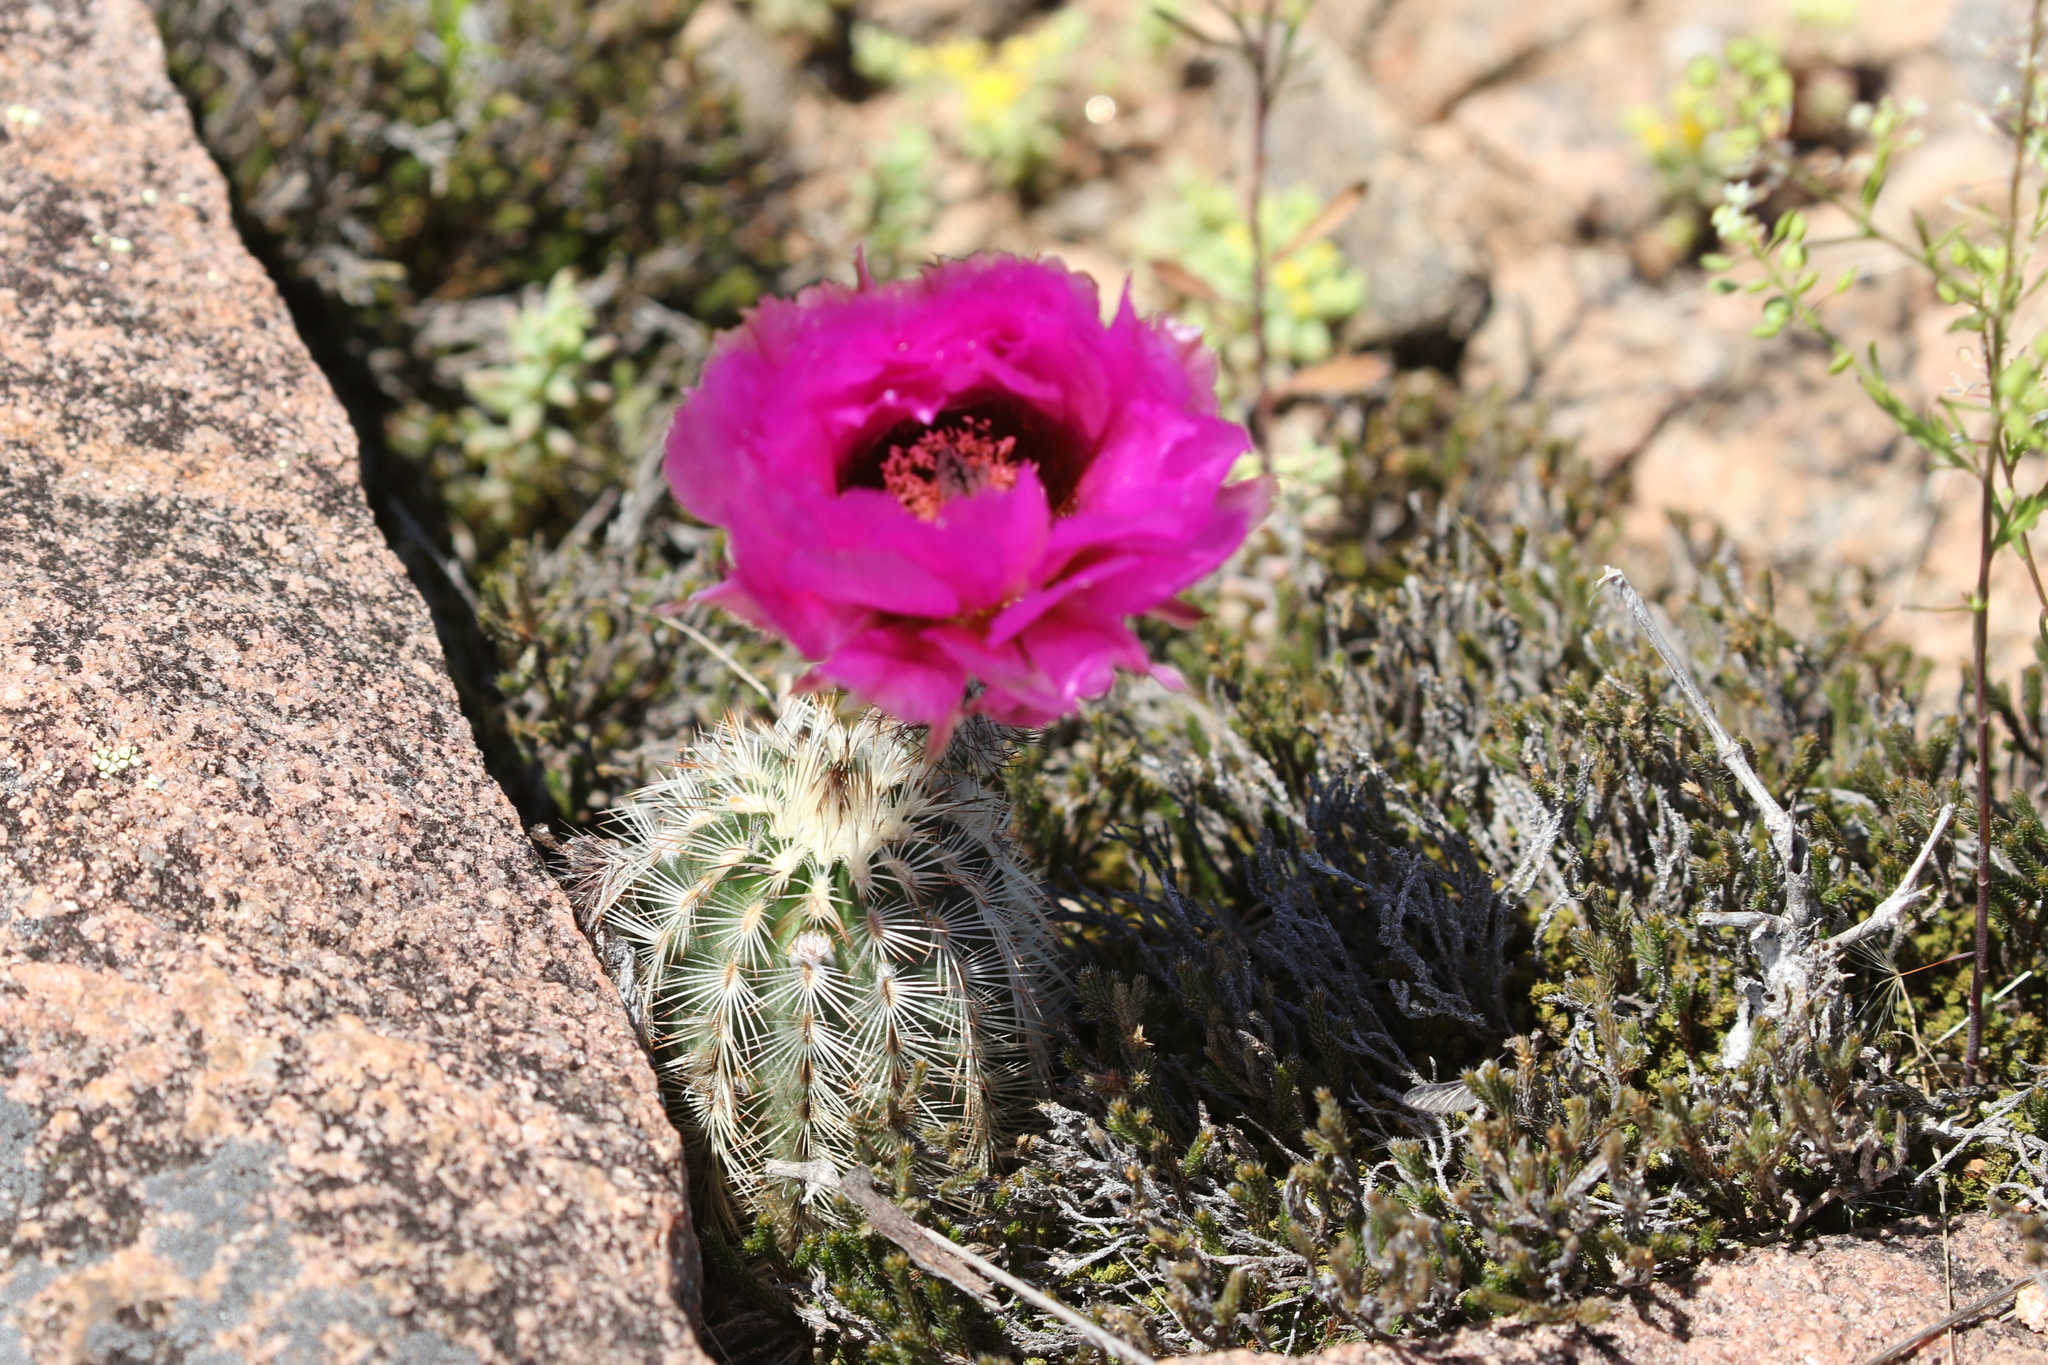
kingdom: Plantae
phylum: Tracheophyta
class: Magnoliopsida
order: Caryophyllales
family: Cactaceae
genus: Echinocereus
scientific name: Echinocereus reichenbachii
